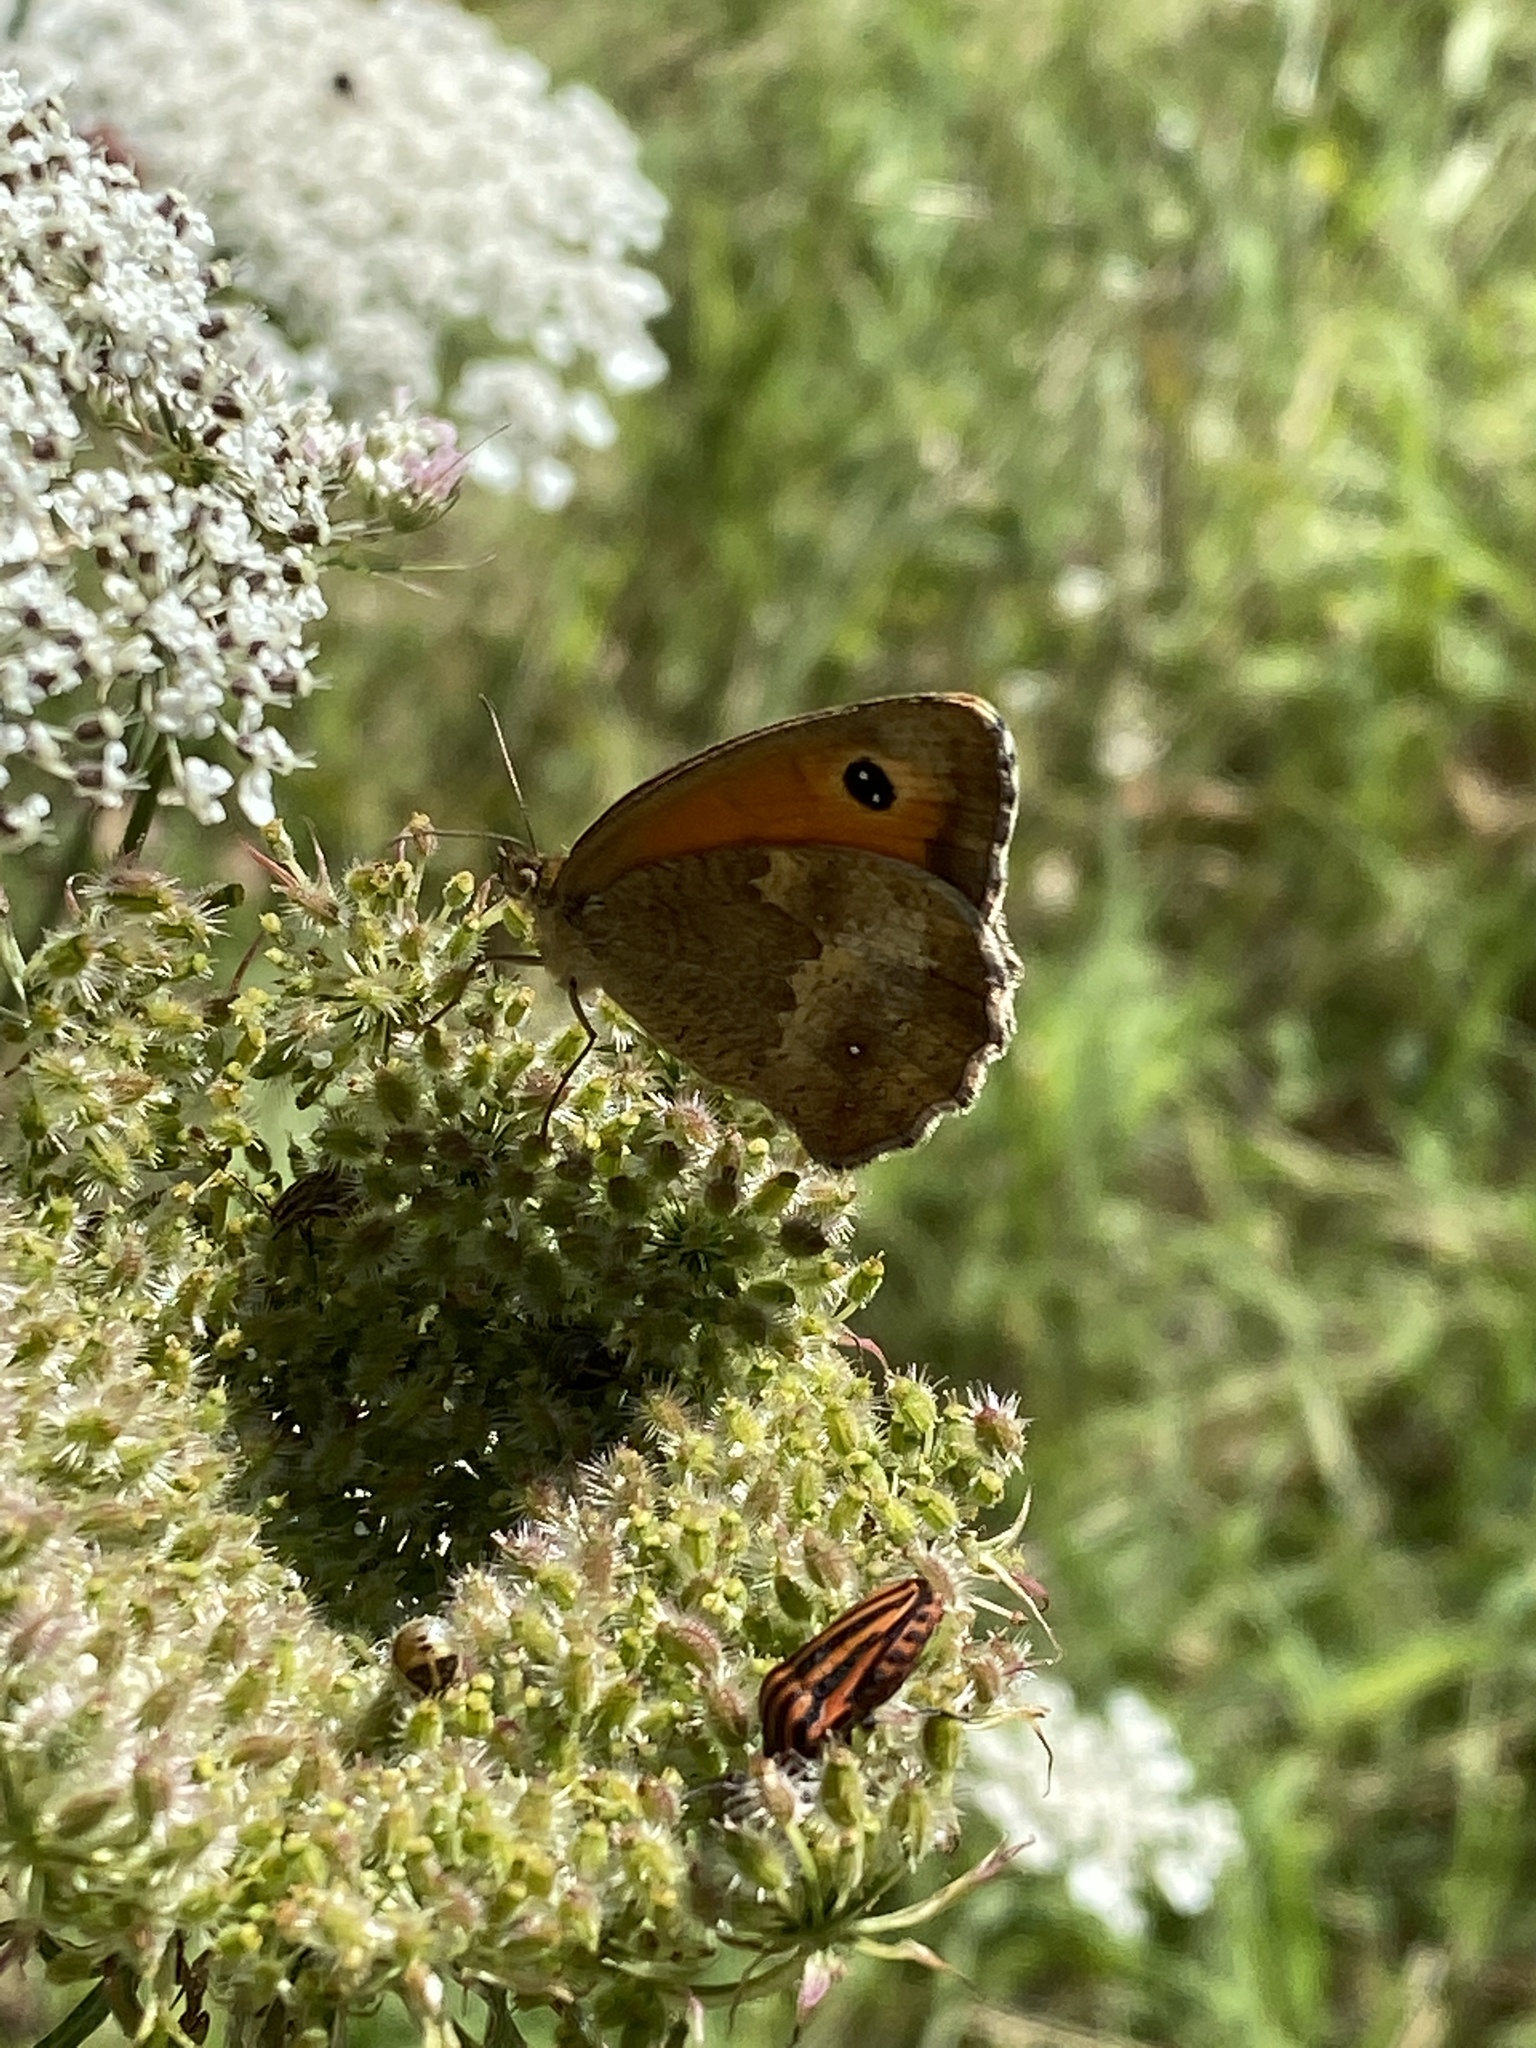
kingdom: Animalia
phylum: Arthropoda
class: Insecta
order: Lepidoptera
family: Nymphalidae
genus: Pyronia
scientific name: Pyronia tithonus
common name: Gatekeeper
